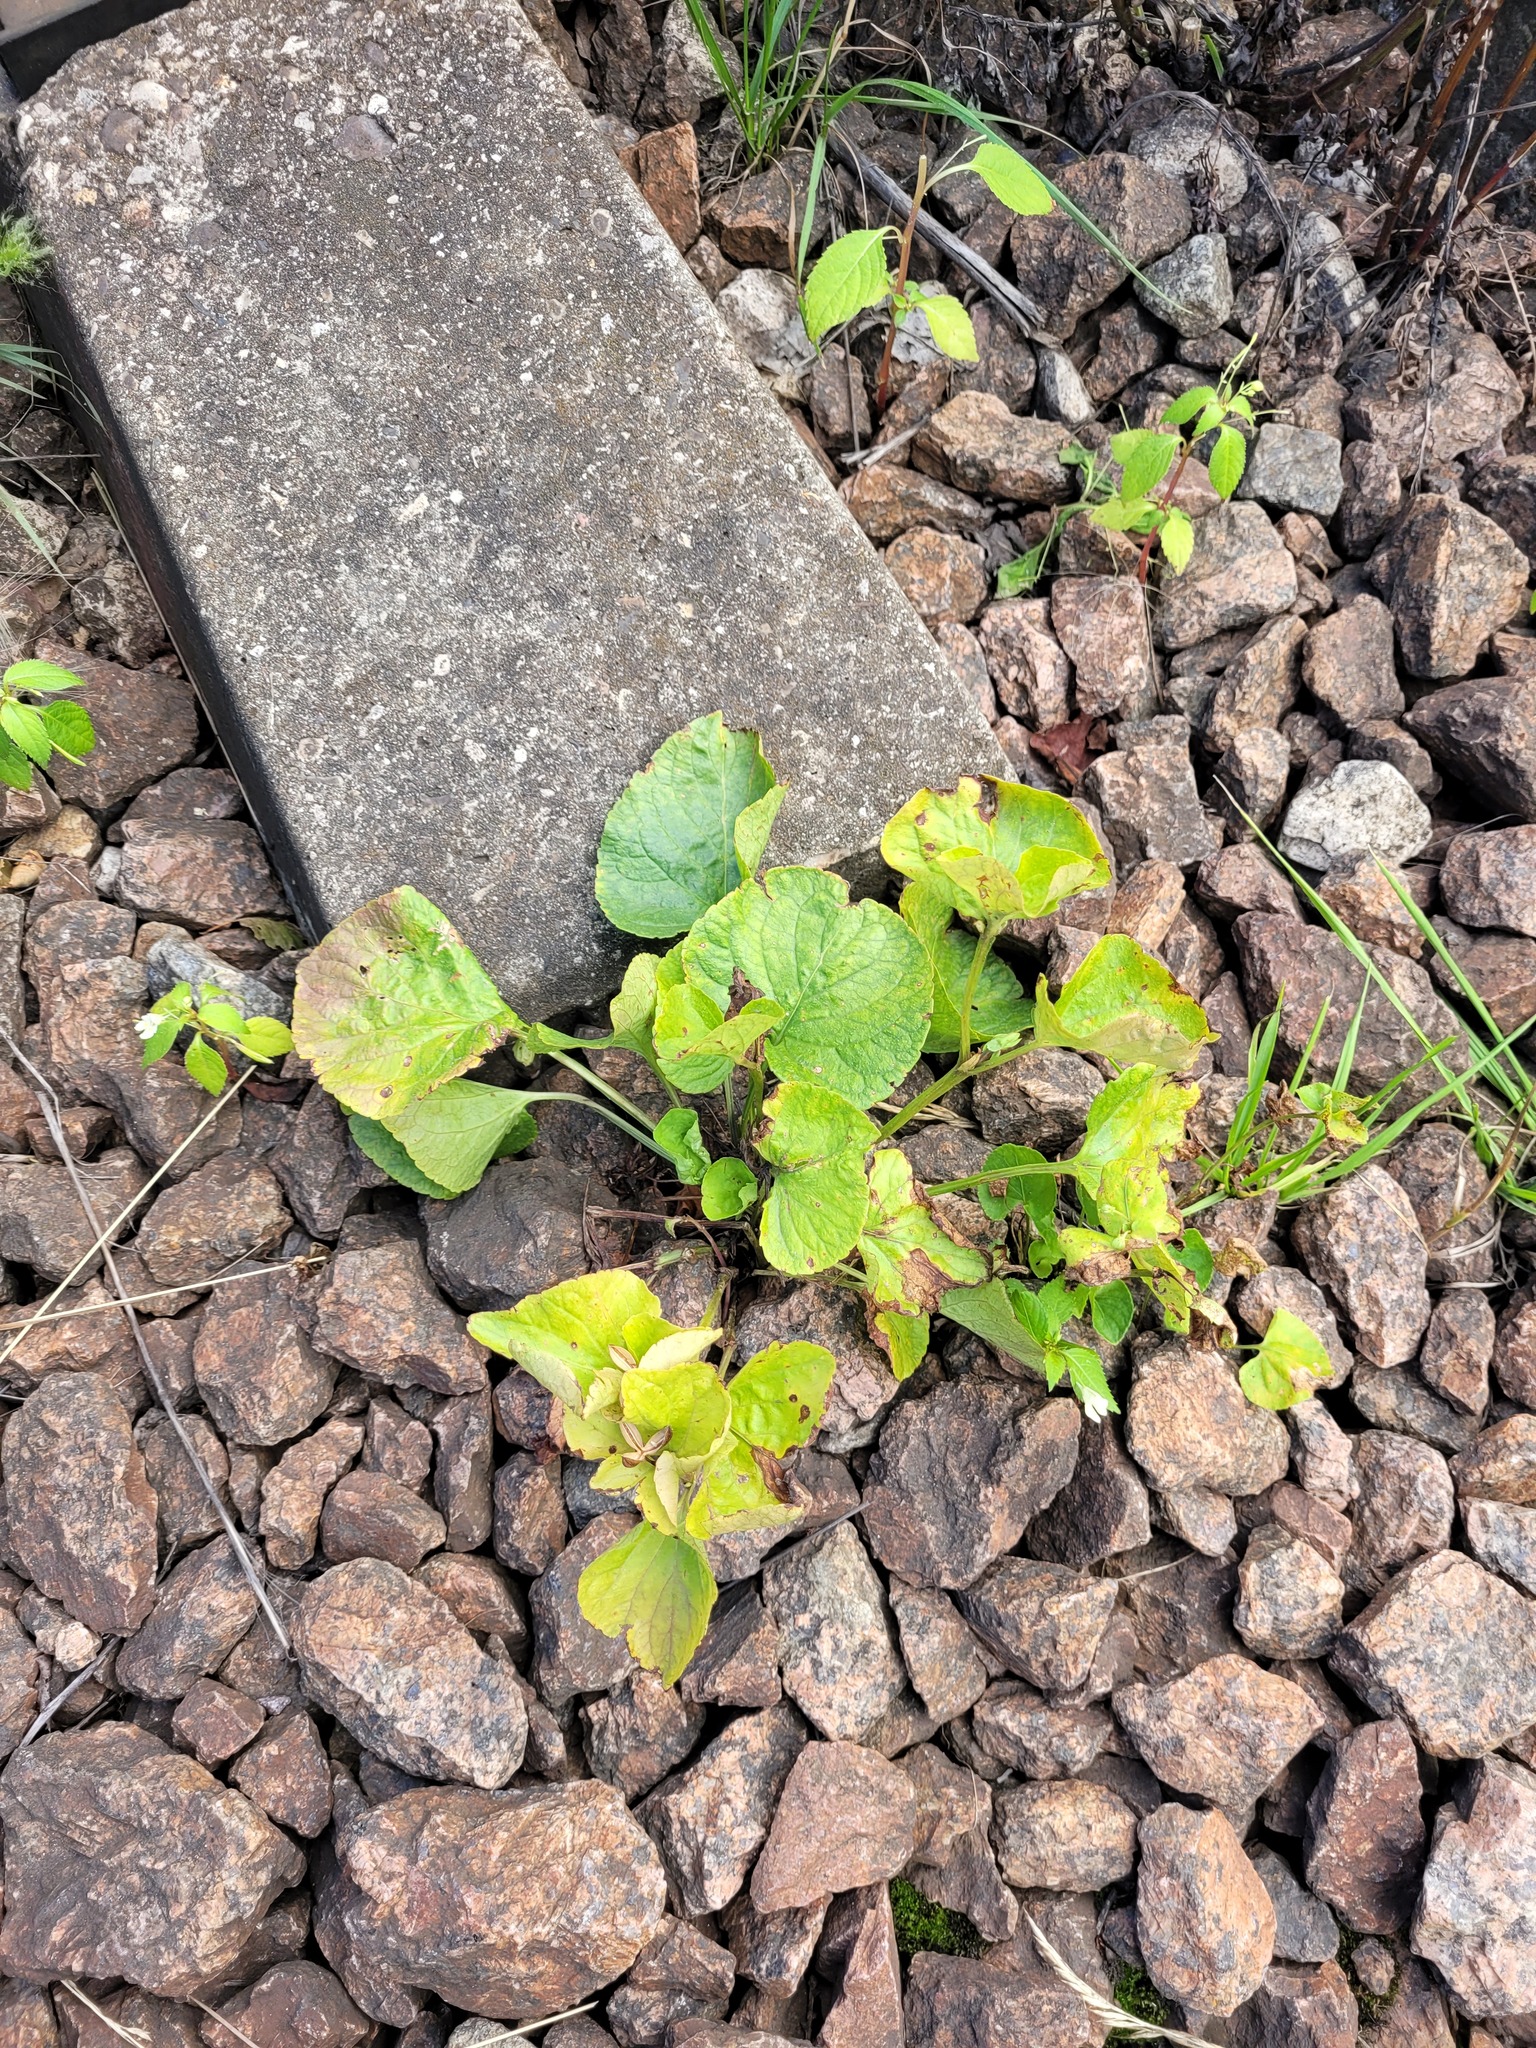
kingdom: Plantae
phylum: Tracheophyta
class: Magnoliopsida
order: Malpighiales
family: Violaceae
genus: Viola
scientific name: Viola mirabilis
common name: Wonder violet
